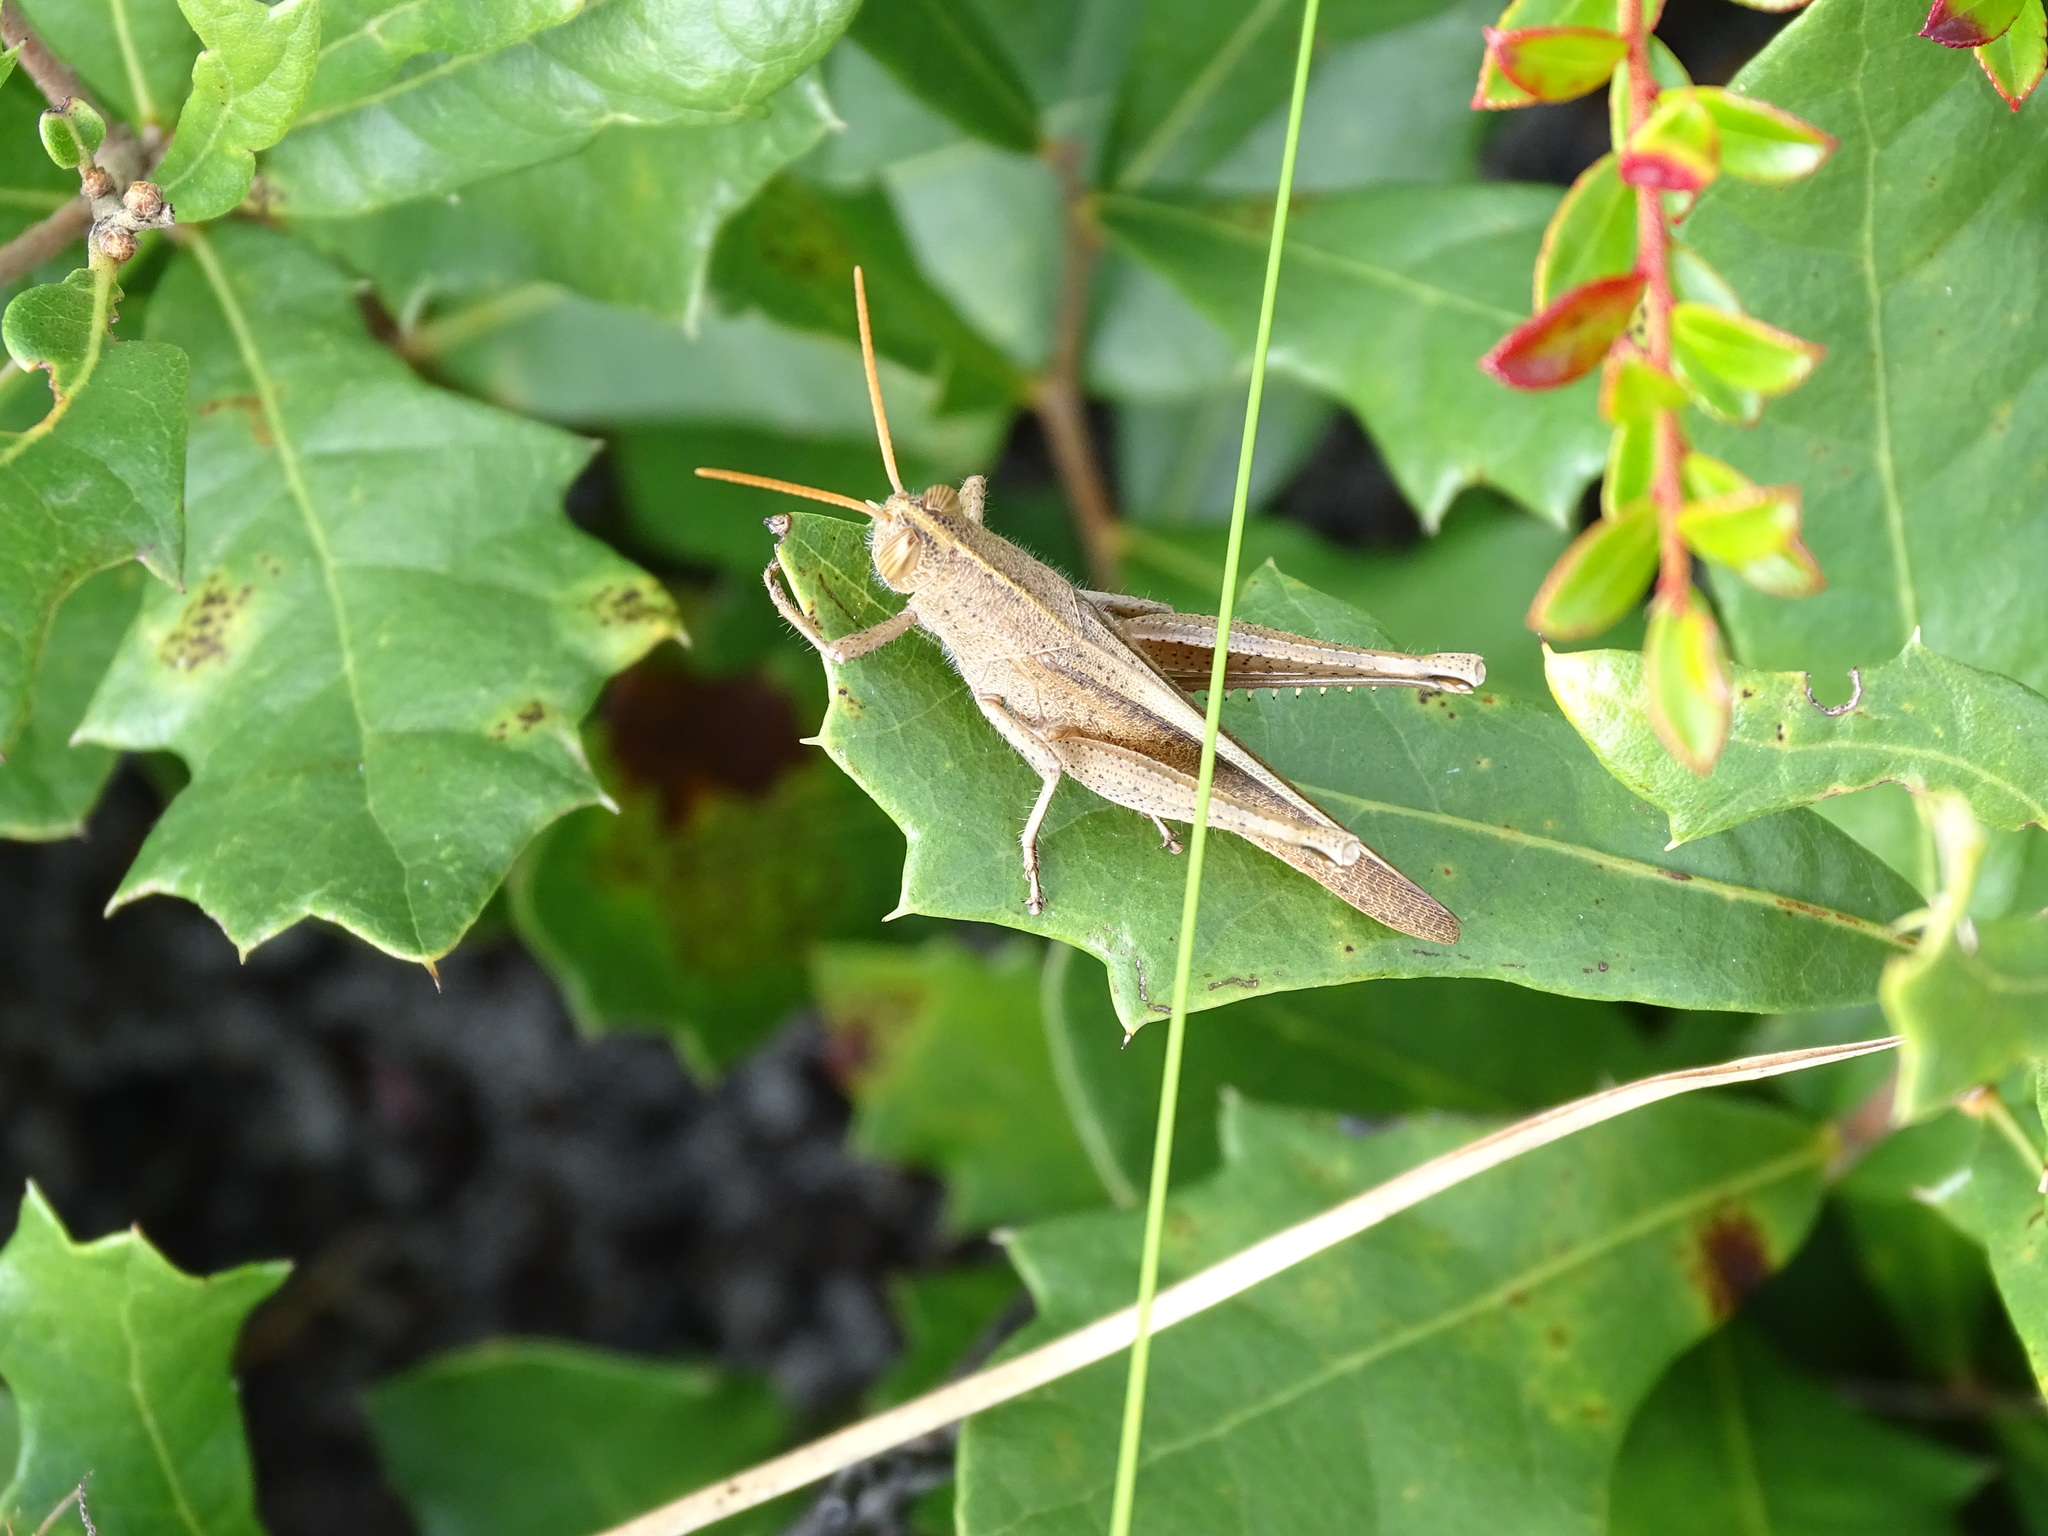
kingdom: Animalia
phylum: Arthropoda
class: Insecta
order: Orthoptera
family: Acrididae
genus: Schistocerca
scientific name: Schistocerca damnifica
